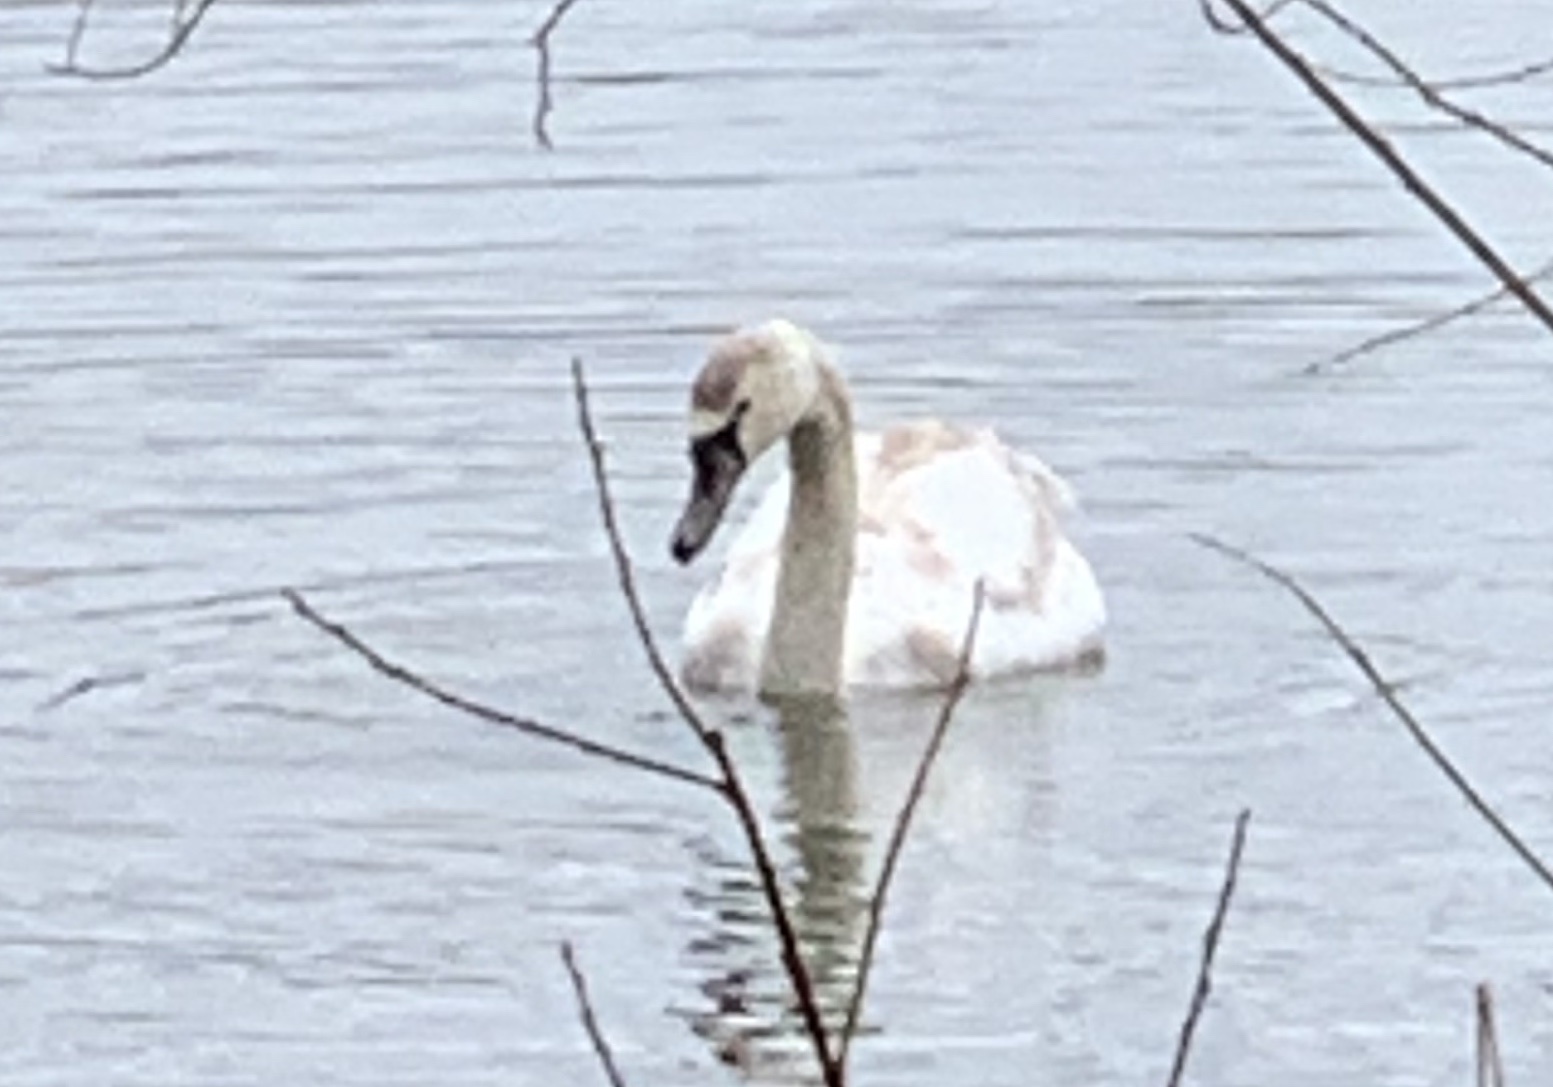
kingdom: Animalia
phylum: Chordata
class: Aves
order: Anseriformes
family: Anatidae
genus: Cygnus
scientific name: Cygnus olor
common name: Mute swan
